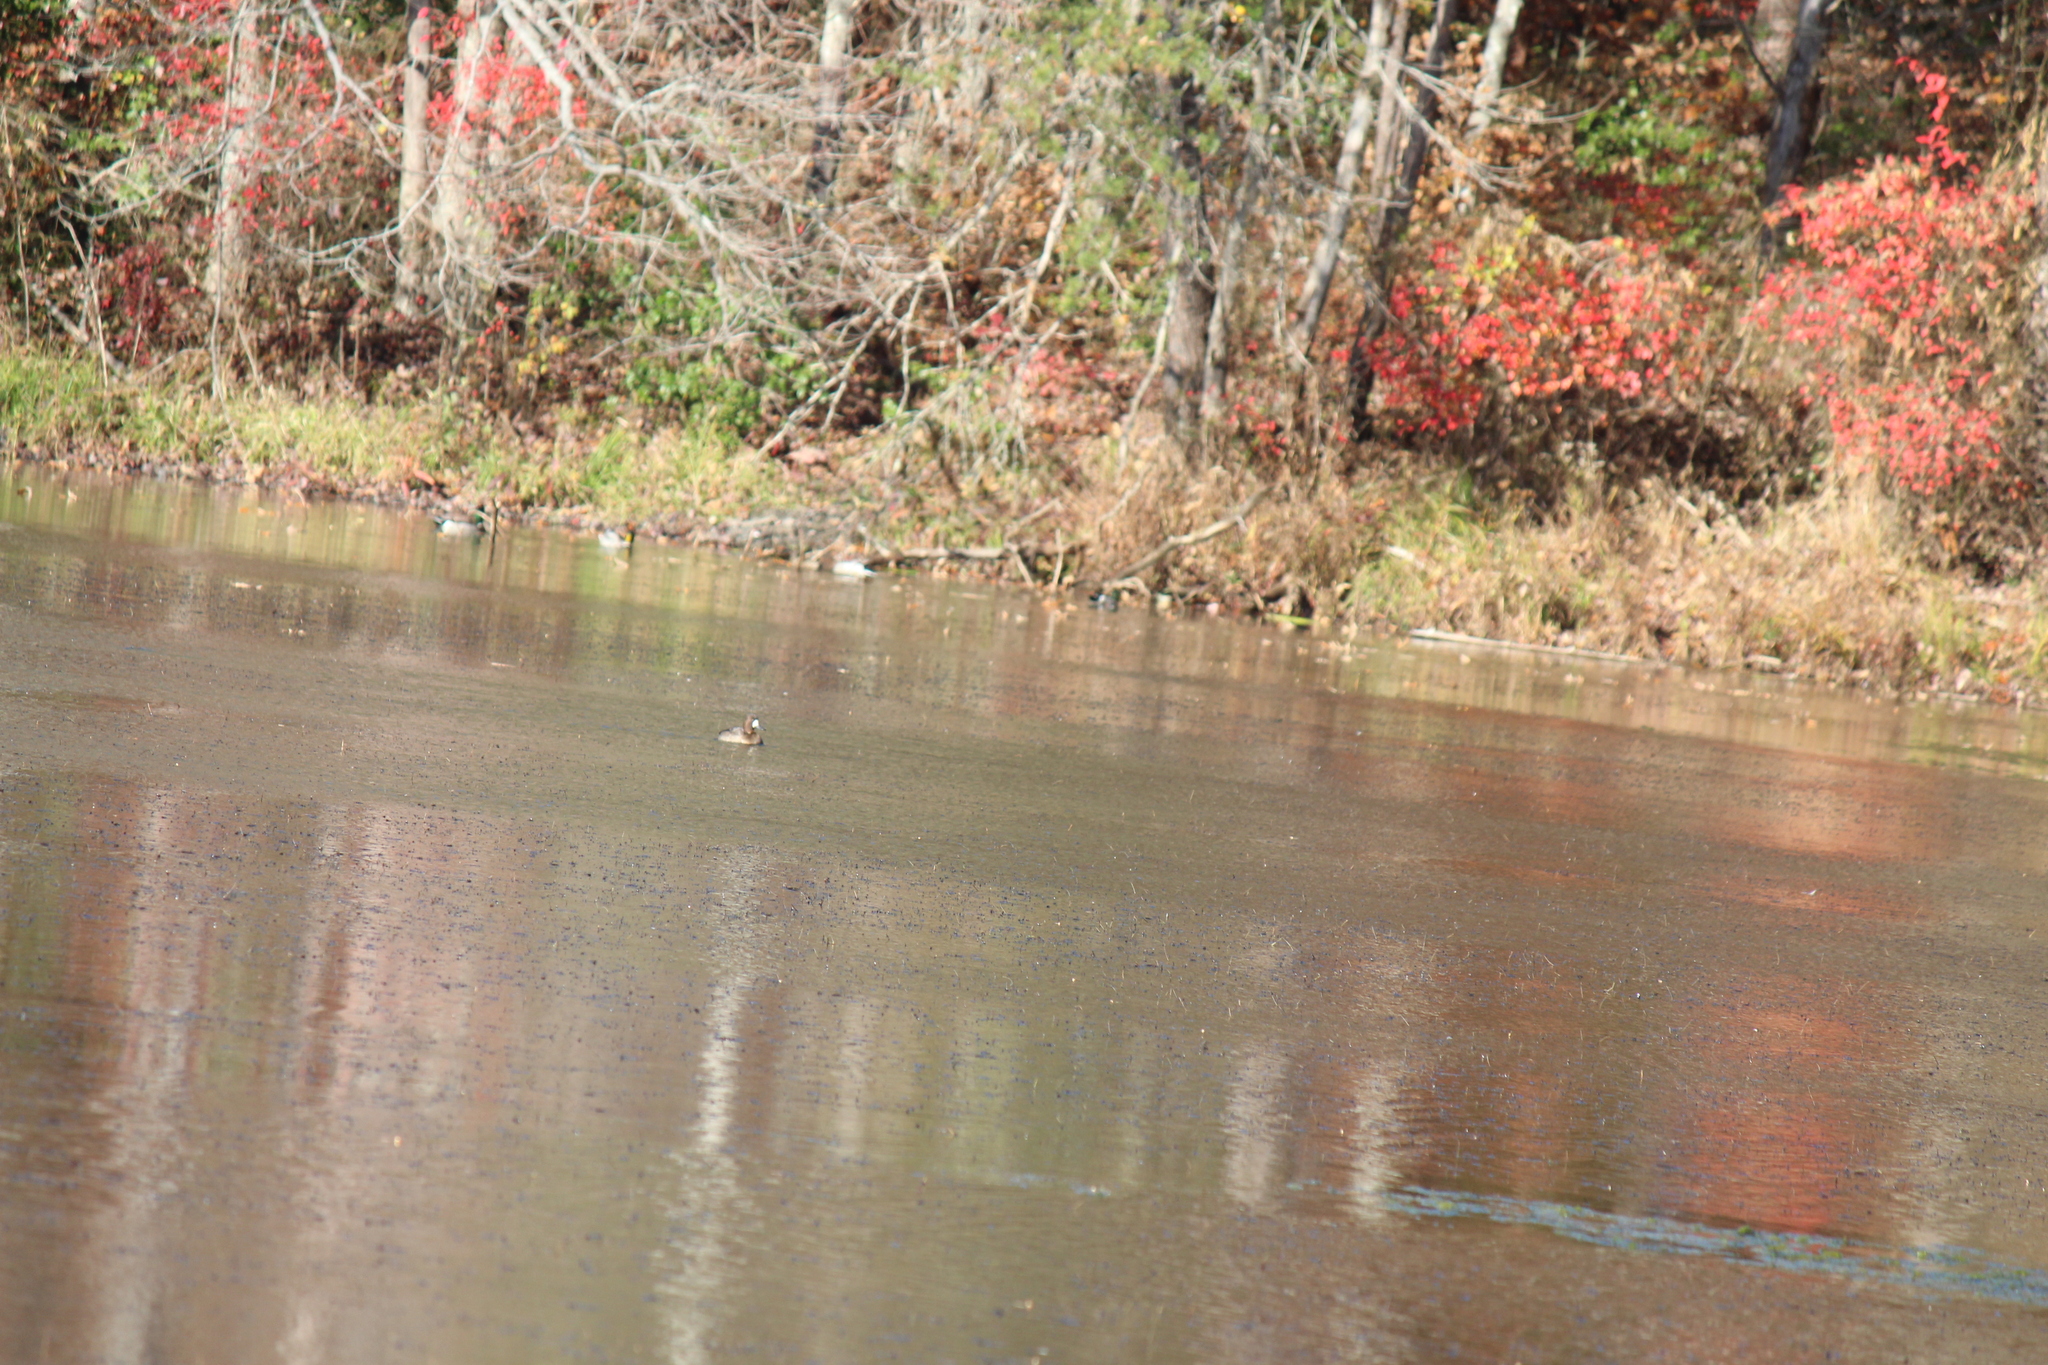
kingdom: Animalia
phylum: Chordata
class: Aves
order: Anseriformes
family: Anatidae
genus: Aythya
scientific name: Aythya affinis
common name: Lesser scaup
